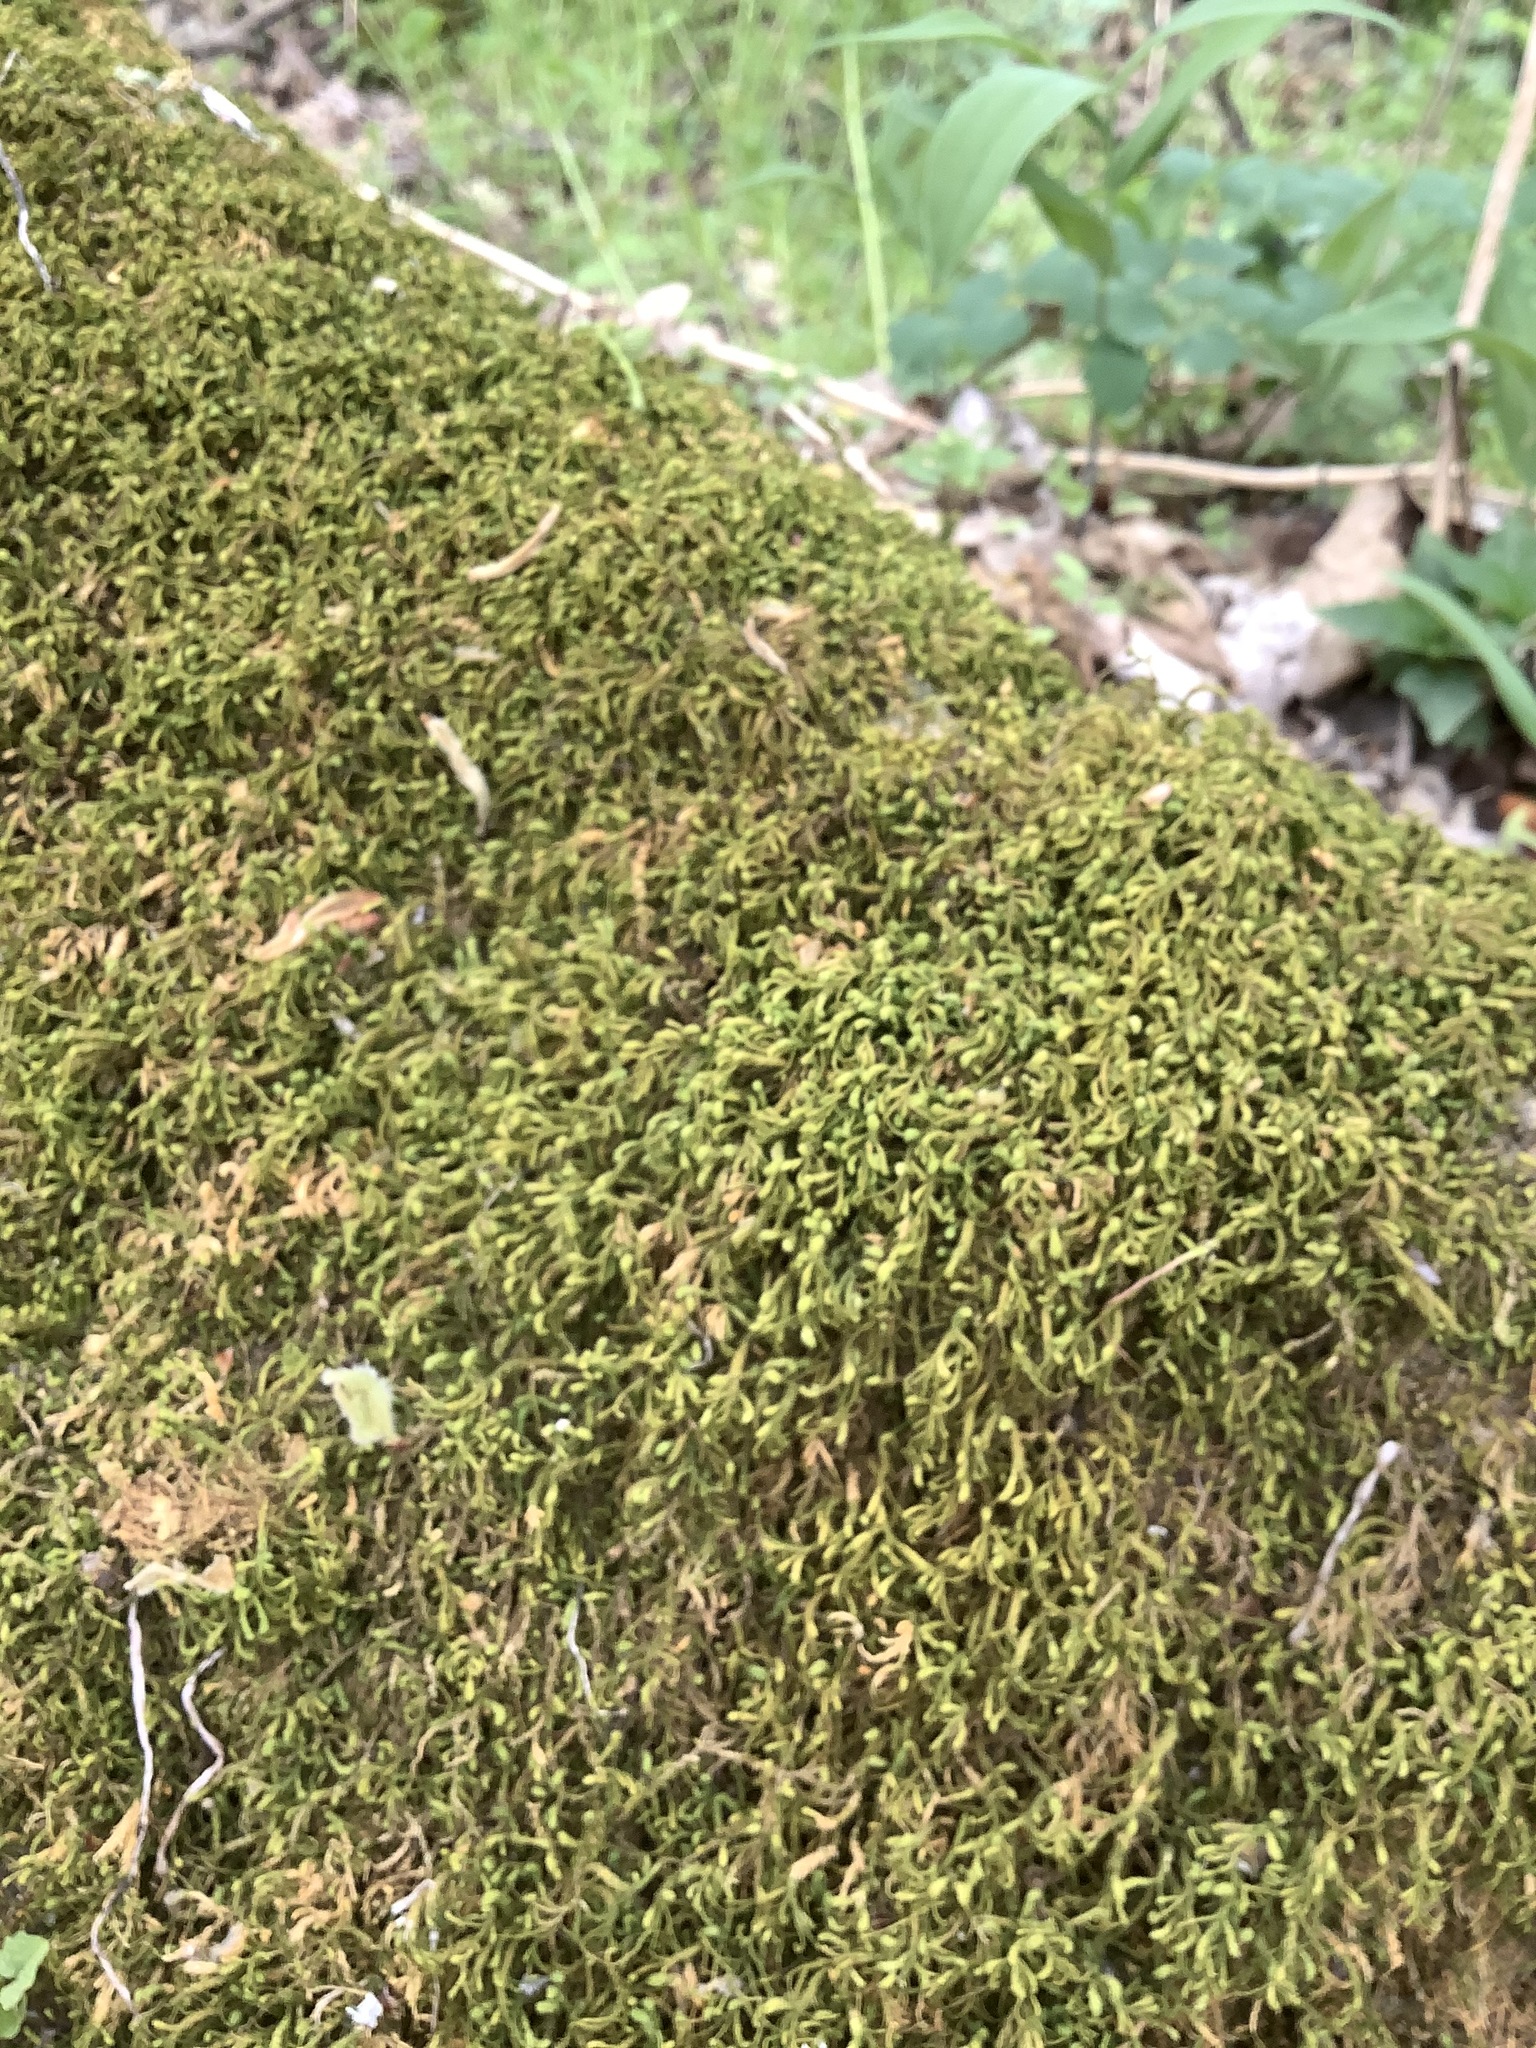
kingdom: Plantae
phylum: Bryophyta
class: Bryopsida
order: Hypnales
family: Neckeraceae
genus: Pseudanomodon
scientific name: Pseudanomodon attenuatus
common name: Tree-skirt moss
